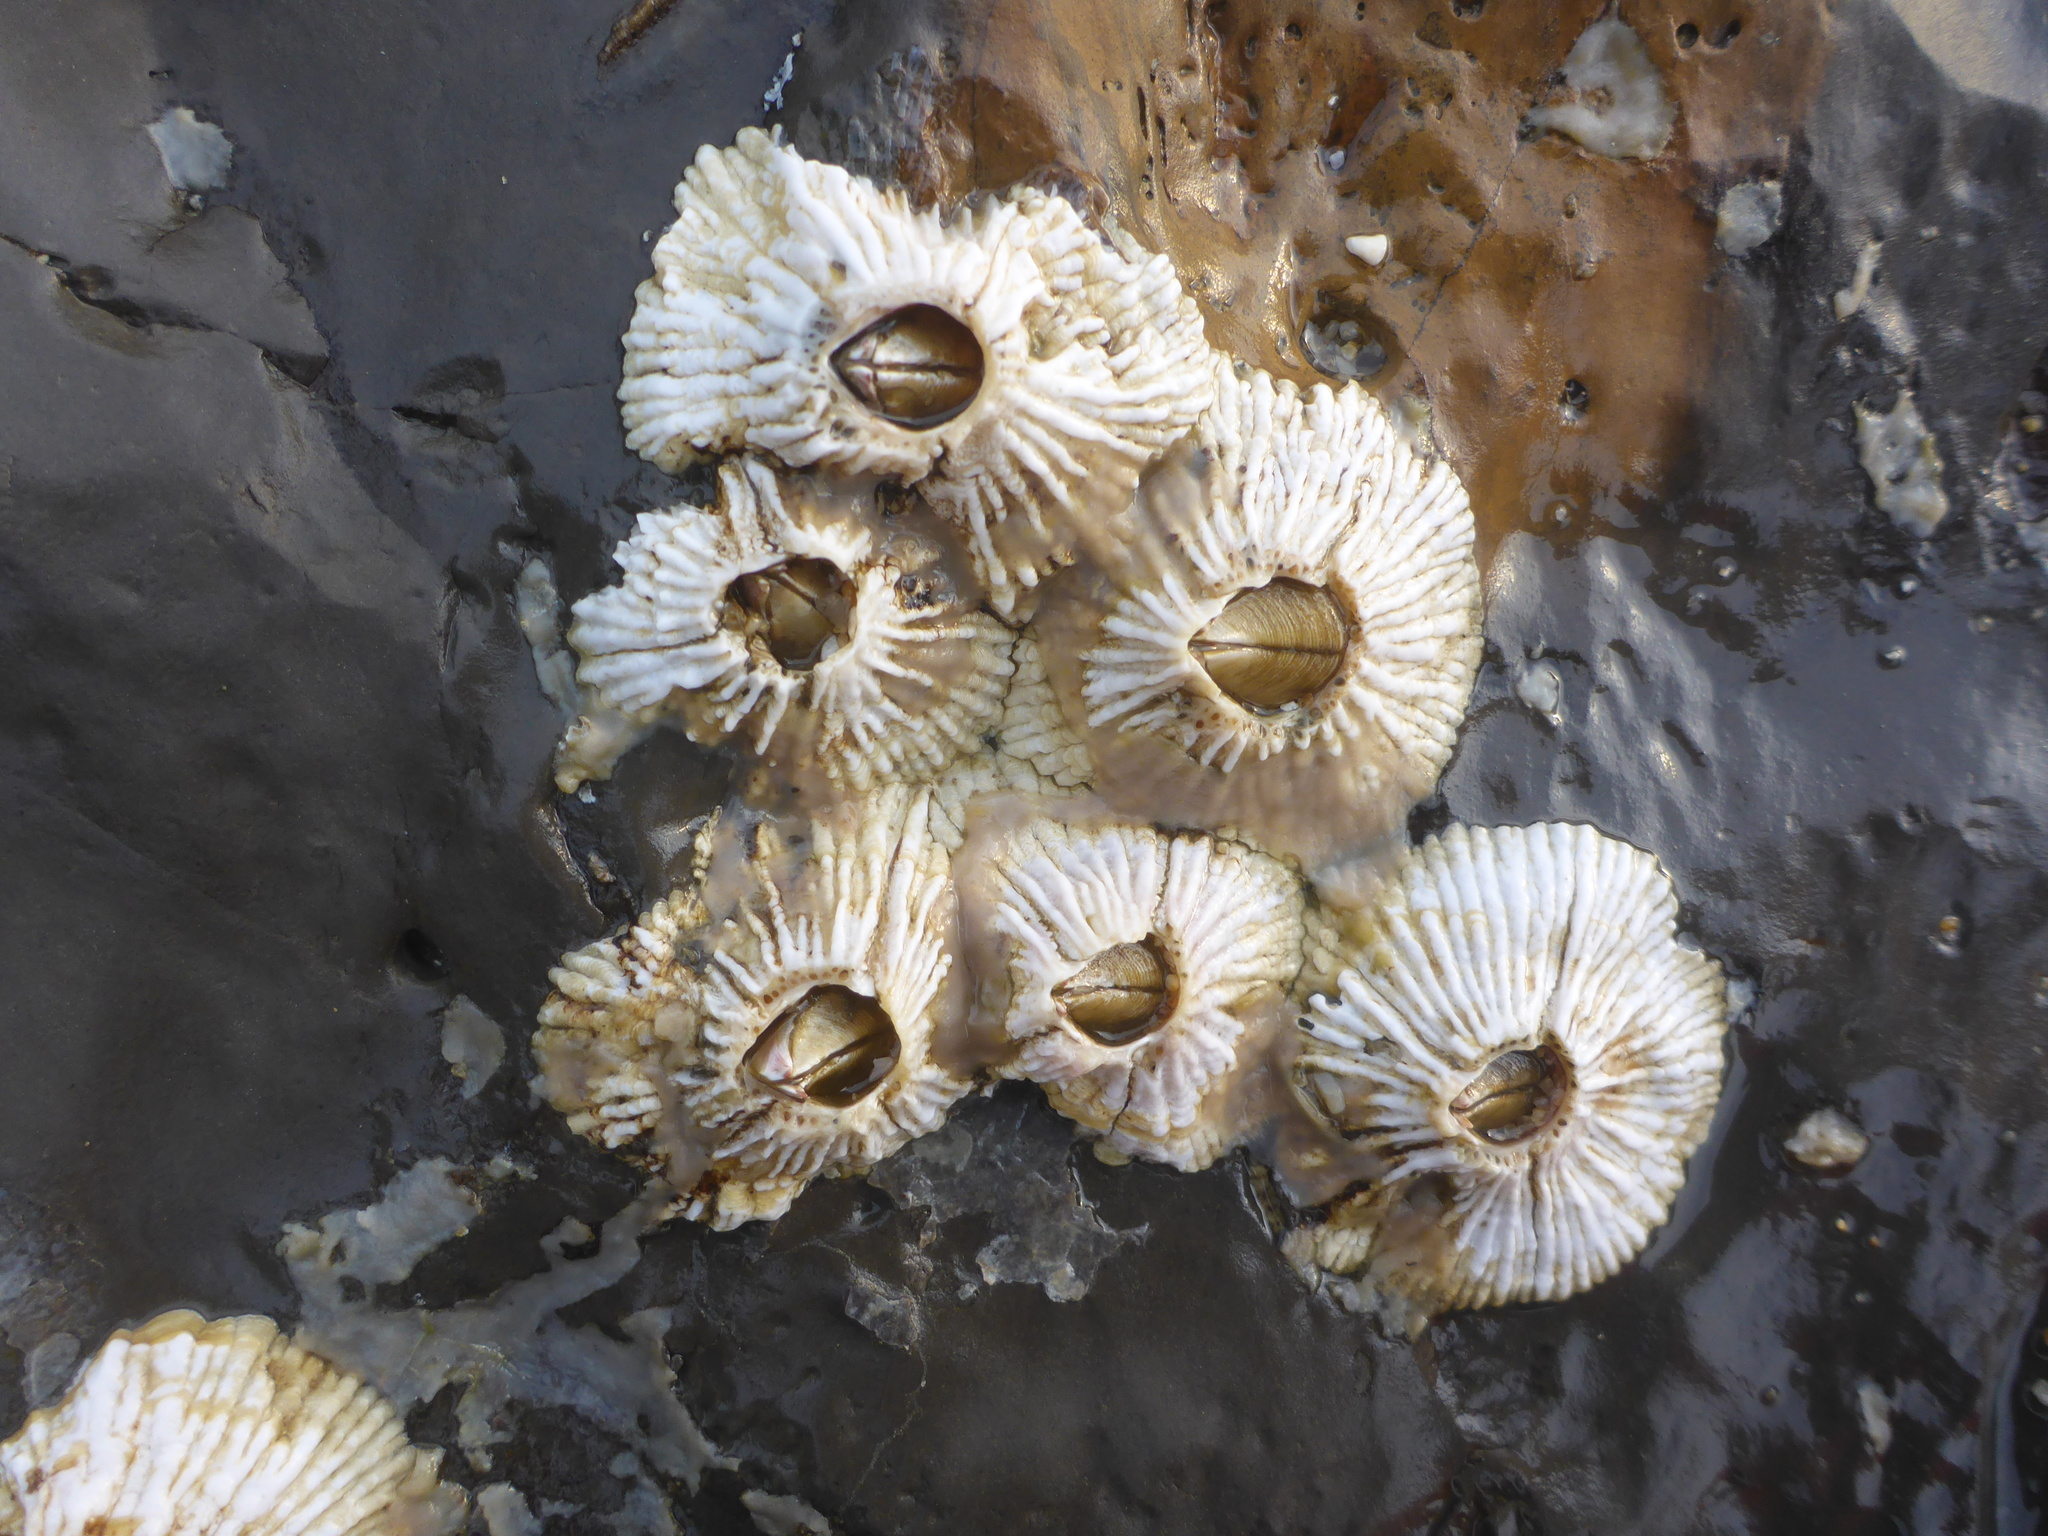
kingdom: Animalia
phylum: Arthropoda
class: Maxillopoda
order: Sessilia
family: Archaeobalanidae
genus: Semibalanus
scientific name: Semibalanus cariosus
